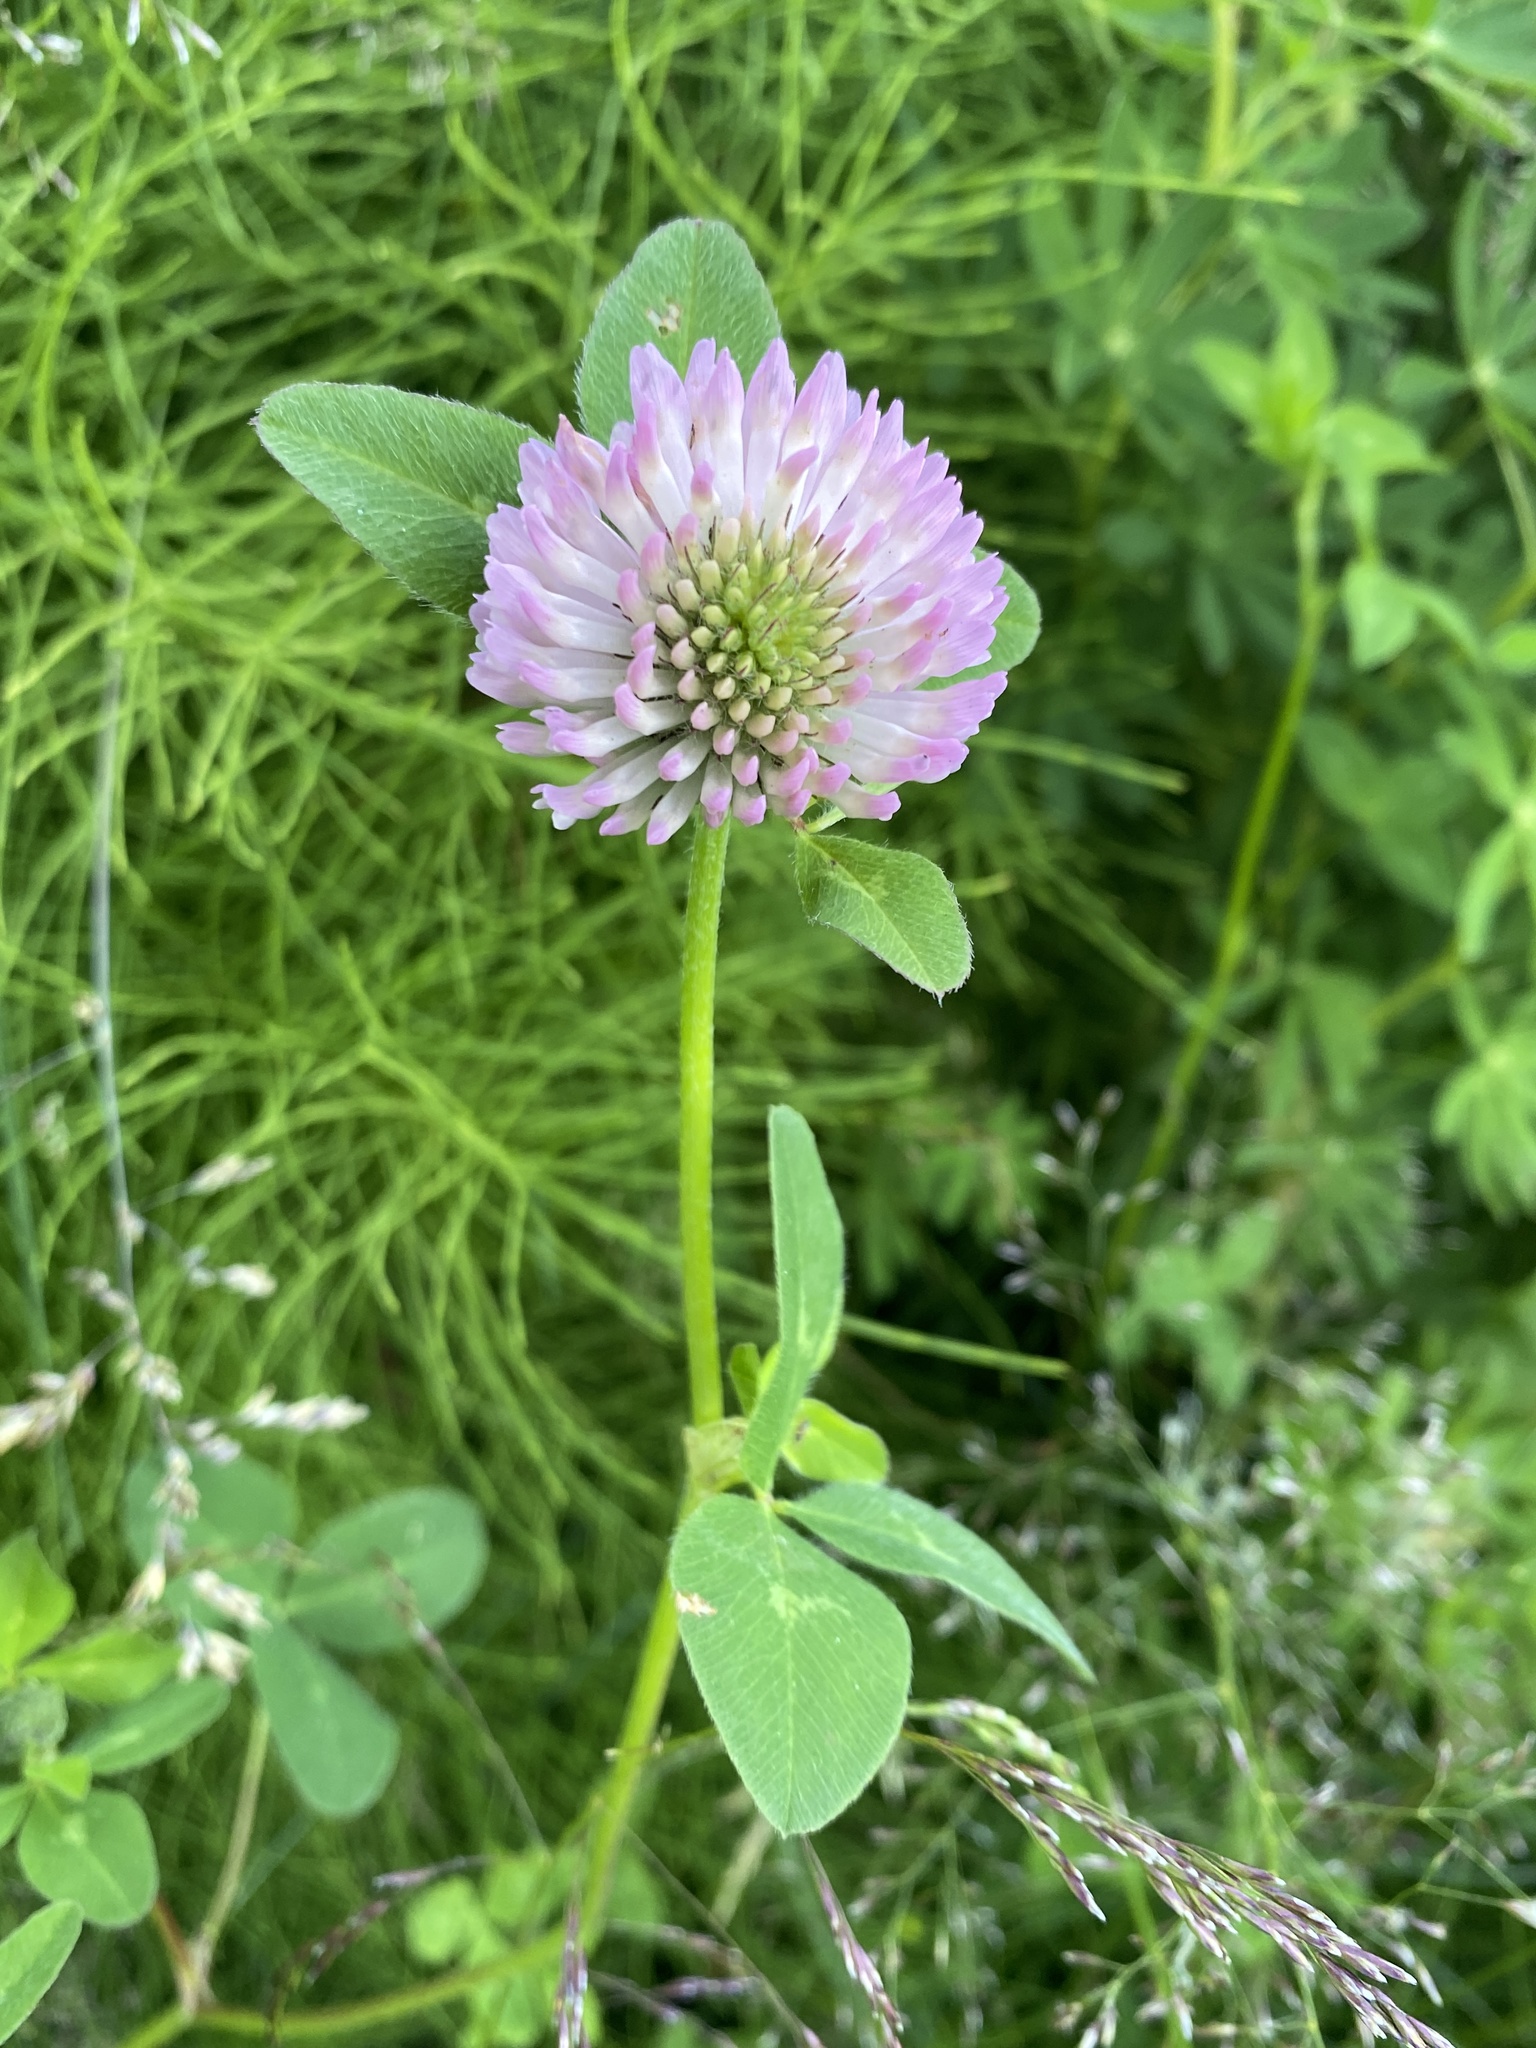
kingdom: Plantae
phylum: Tracheophyta
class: Magnoliopsida
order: Fabales
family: Fabaceae
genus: Trifolium
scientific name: Trifolium pratense
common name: Red clover
